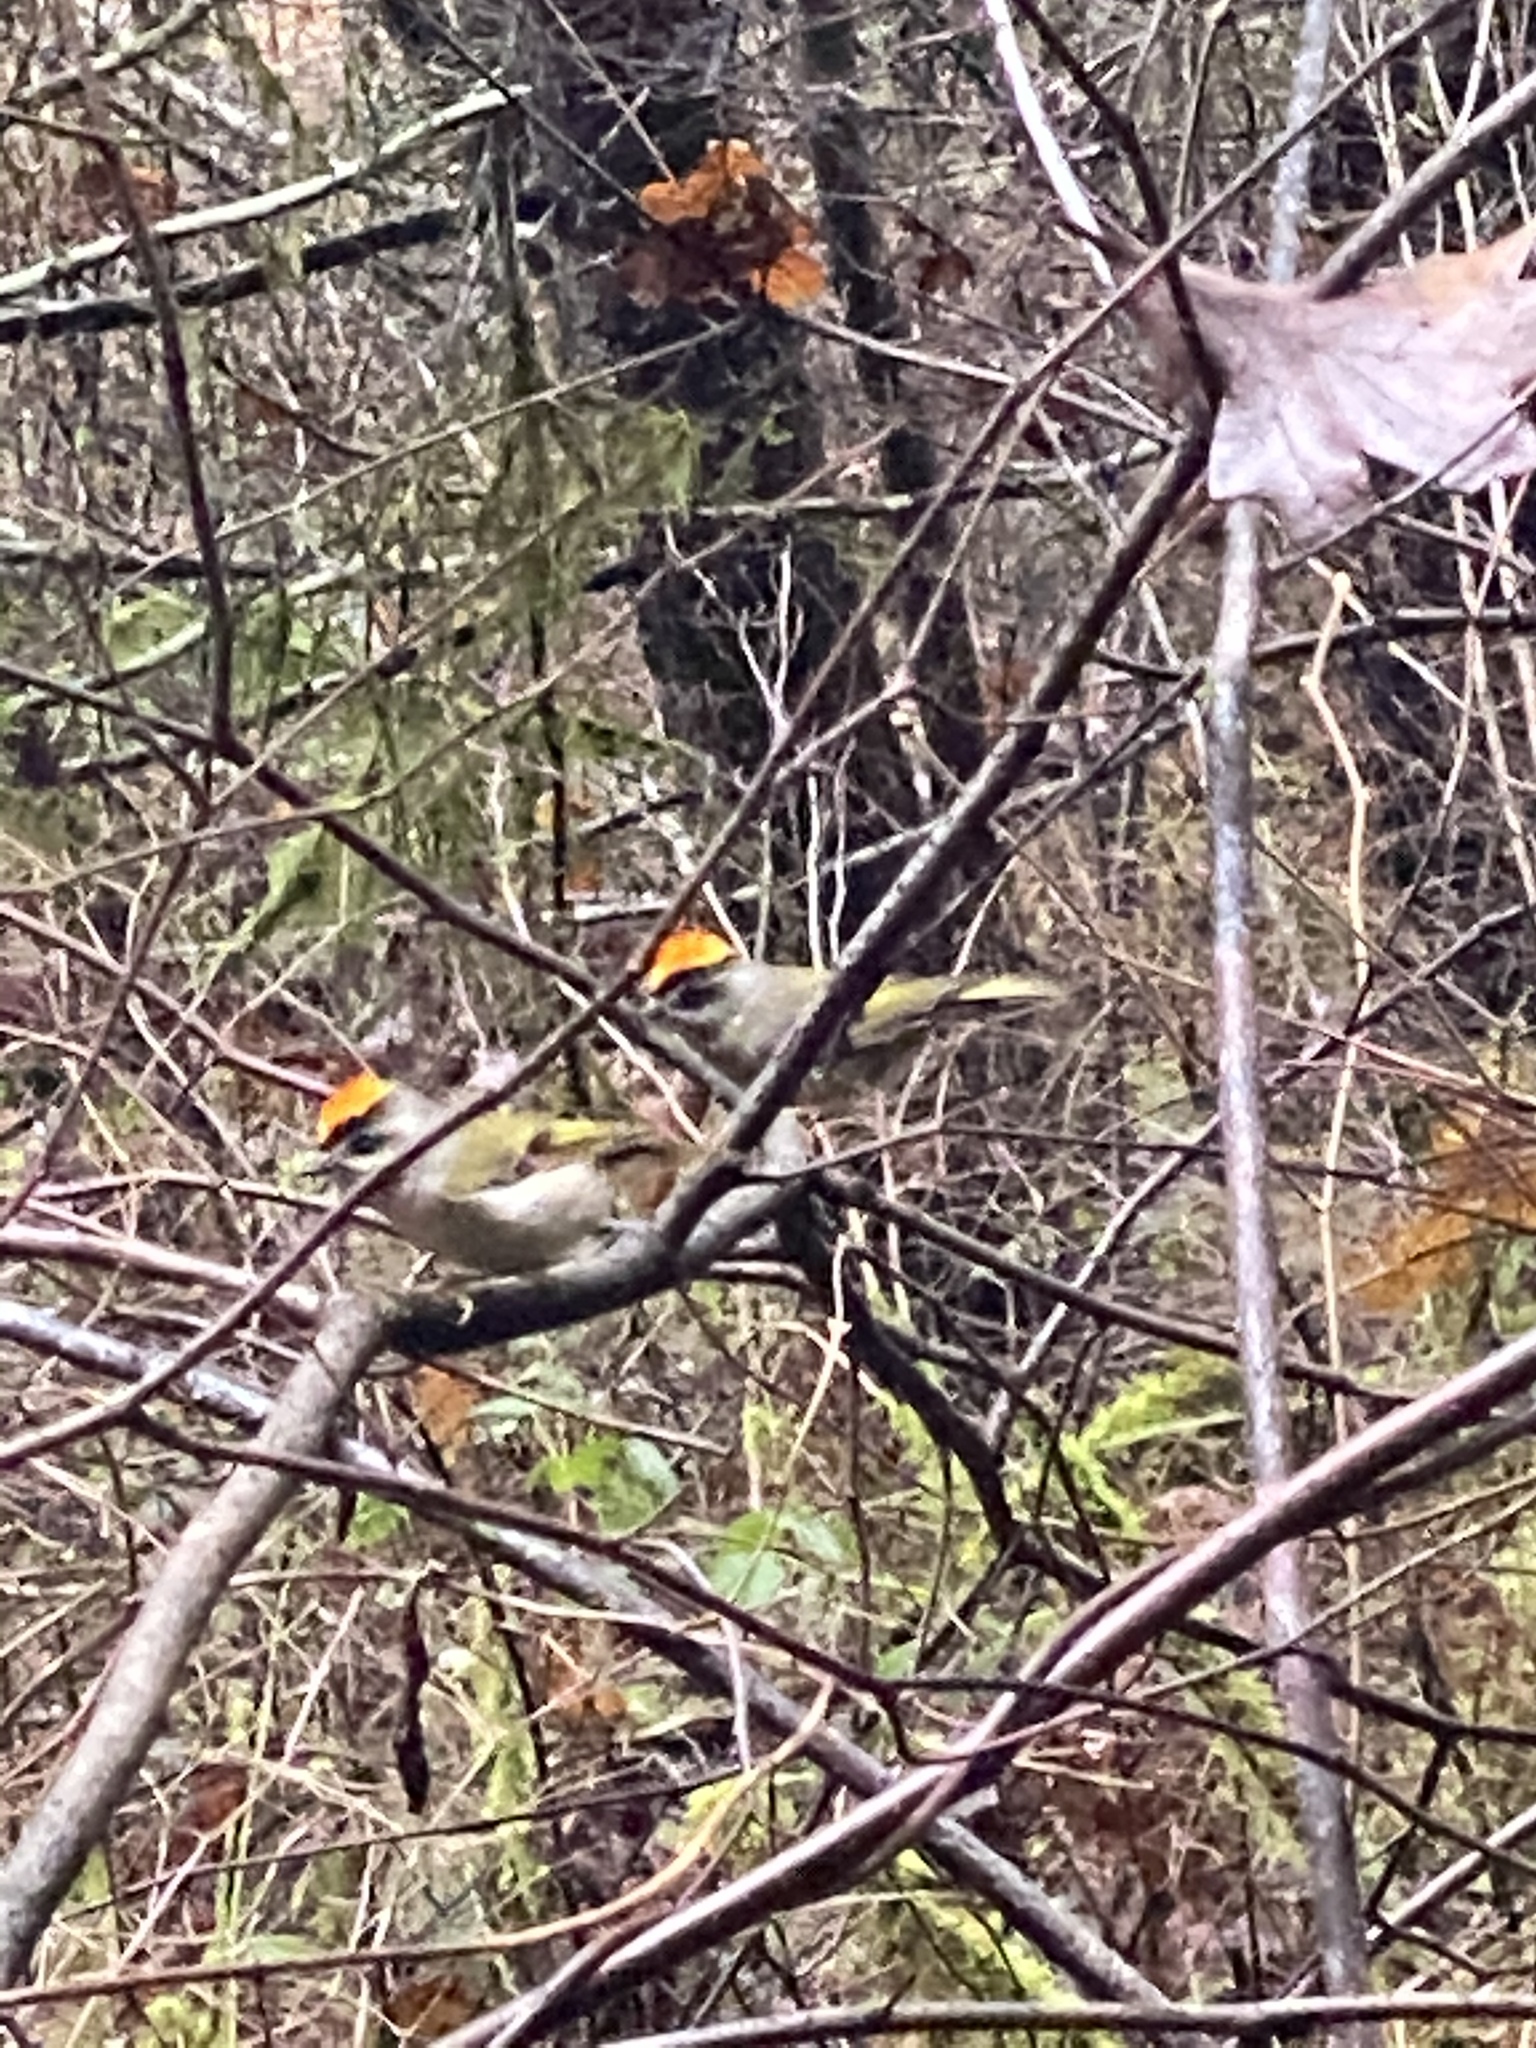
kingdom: Animalia
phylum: Chordata
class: Aves
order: Passeriformes
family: Regulidae
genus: Regulus
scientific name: Regulus satrapa
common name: Golden-crowned kinglet
